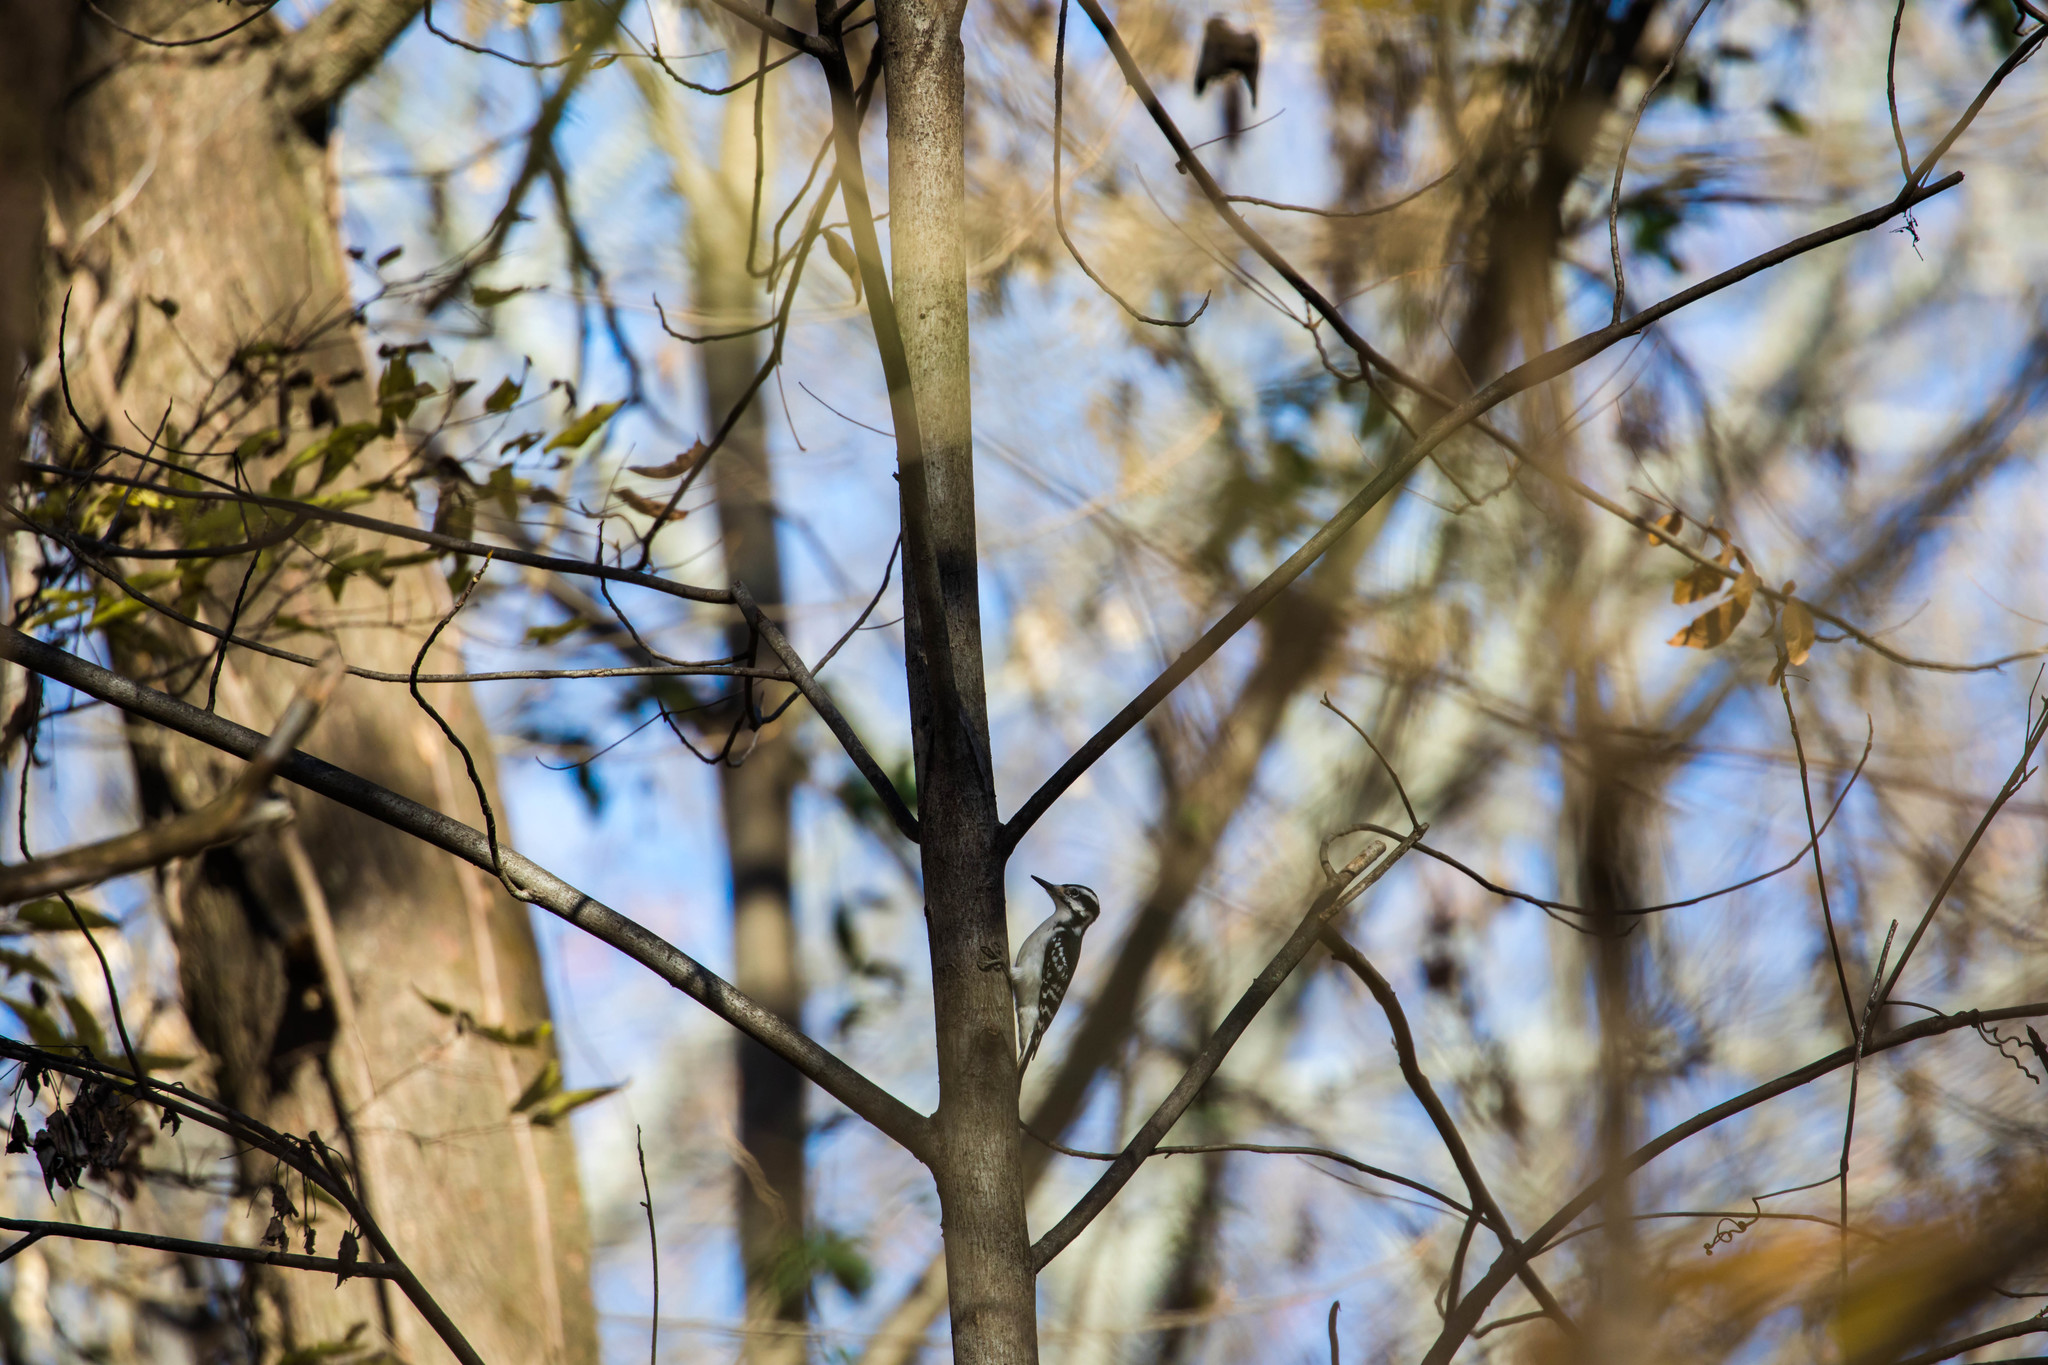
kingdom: Animalia
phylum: Chordata
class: Aves
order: Piciformes
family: Picidae
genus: Leuconotopicus
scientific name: Leuconotopicus villosus
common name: Hairy woodpecker
